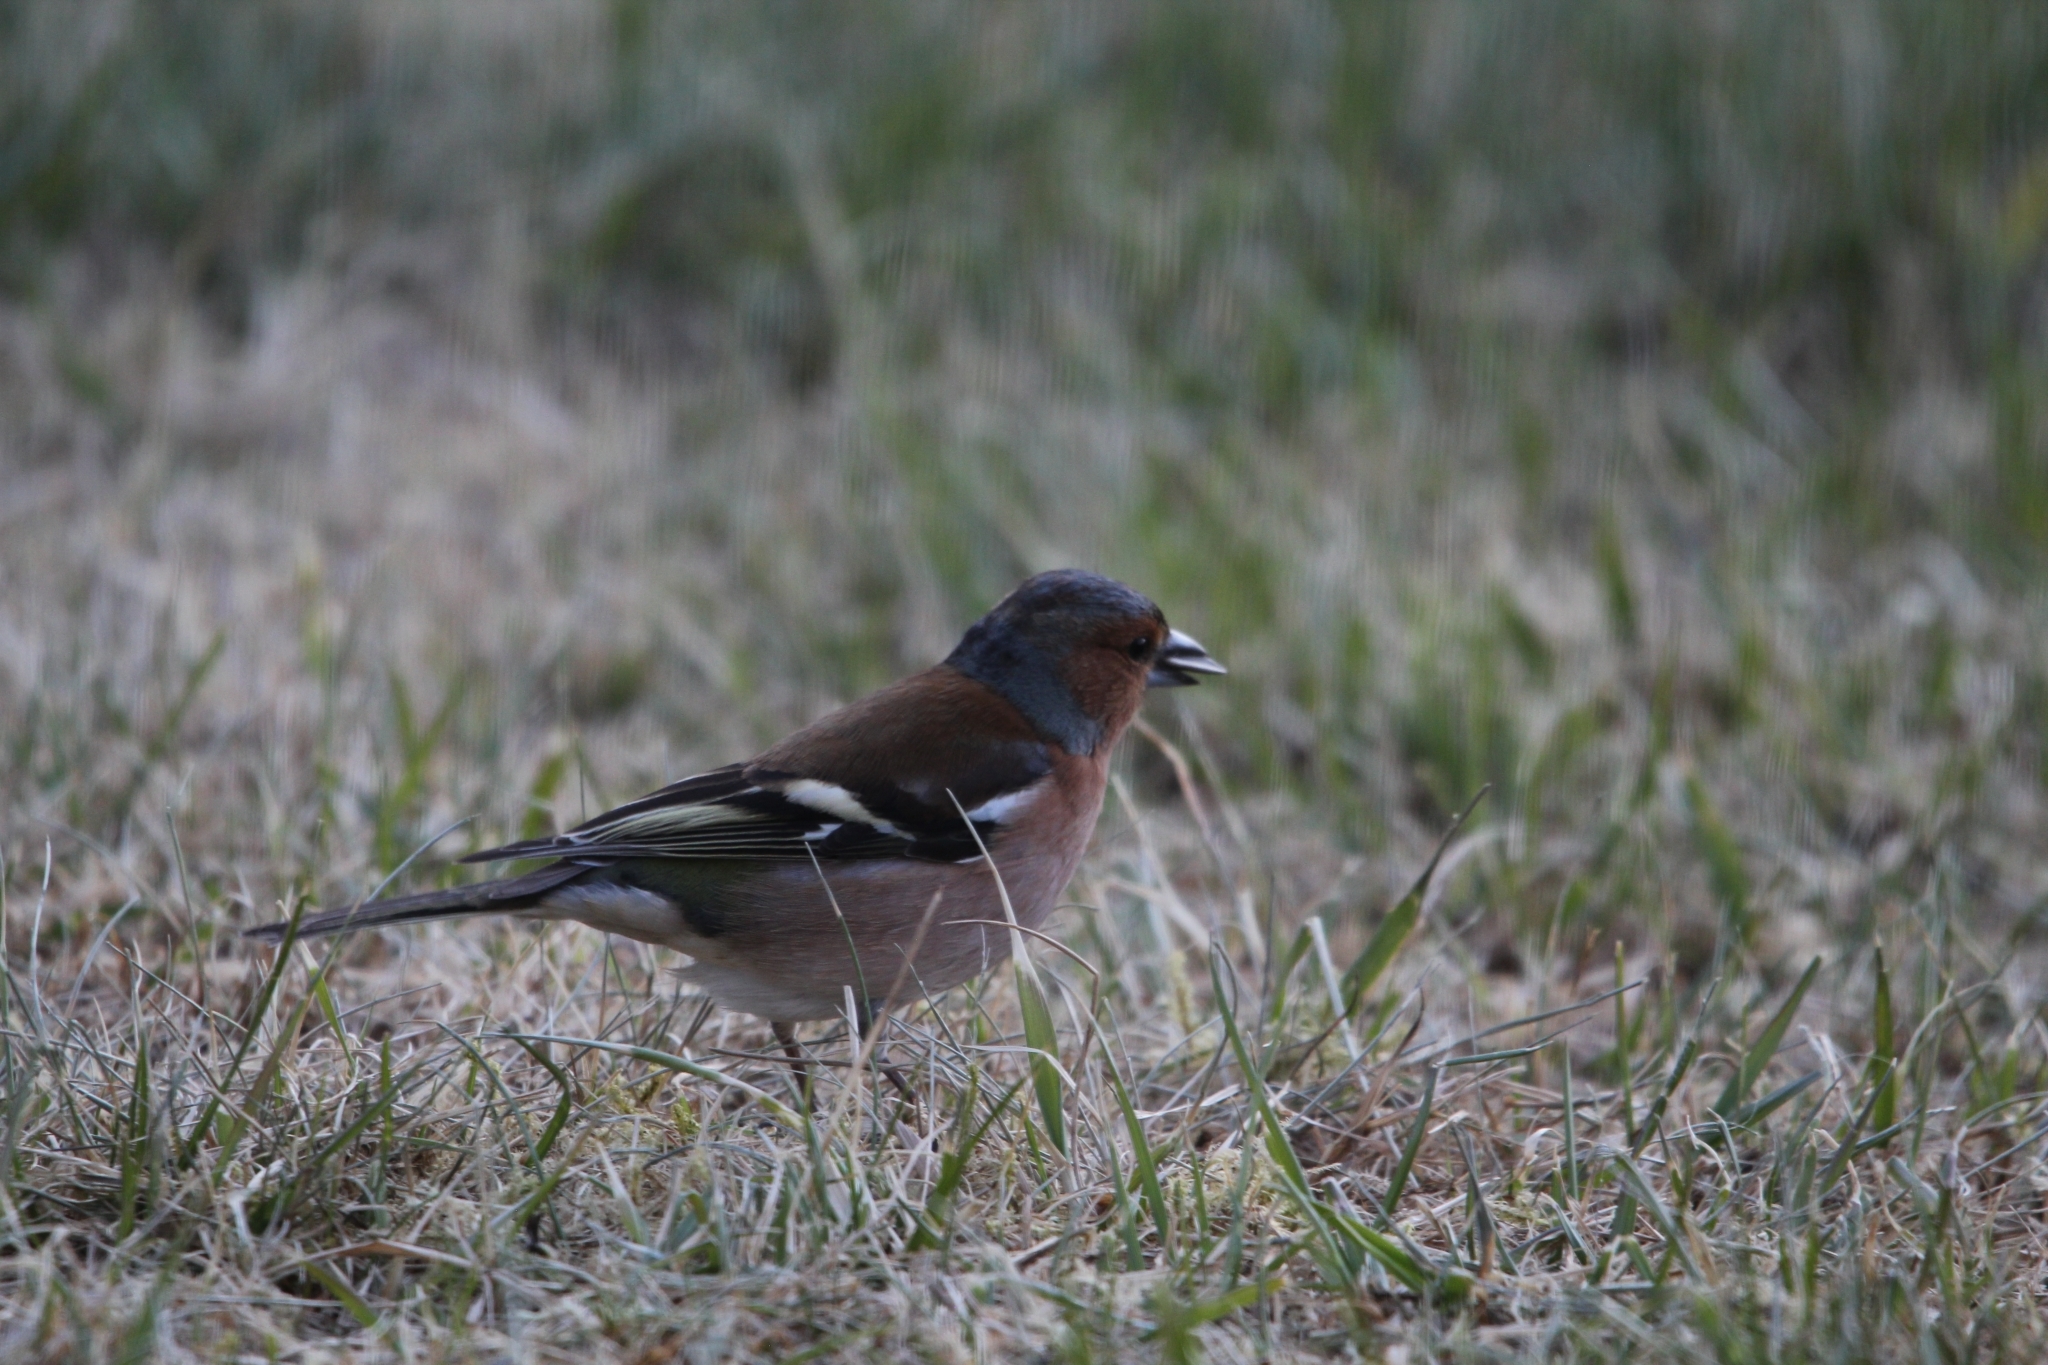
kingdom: Animalia
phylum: Chordata
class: Aves
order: Passeriformes
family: Fringillidae
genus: Fringilla
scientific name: Fringilla coelebs
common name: Common chaffinch
